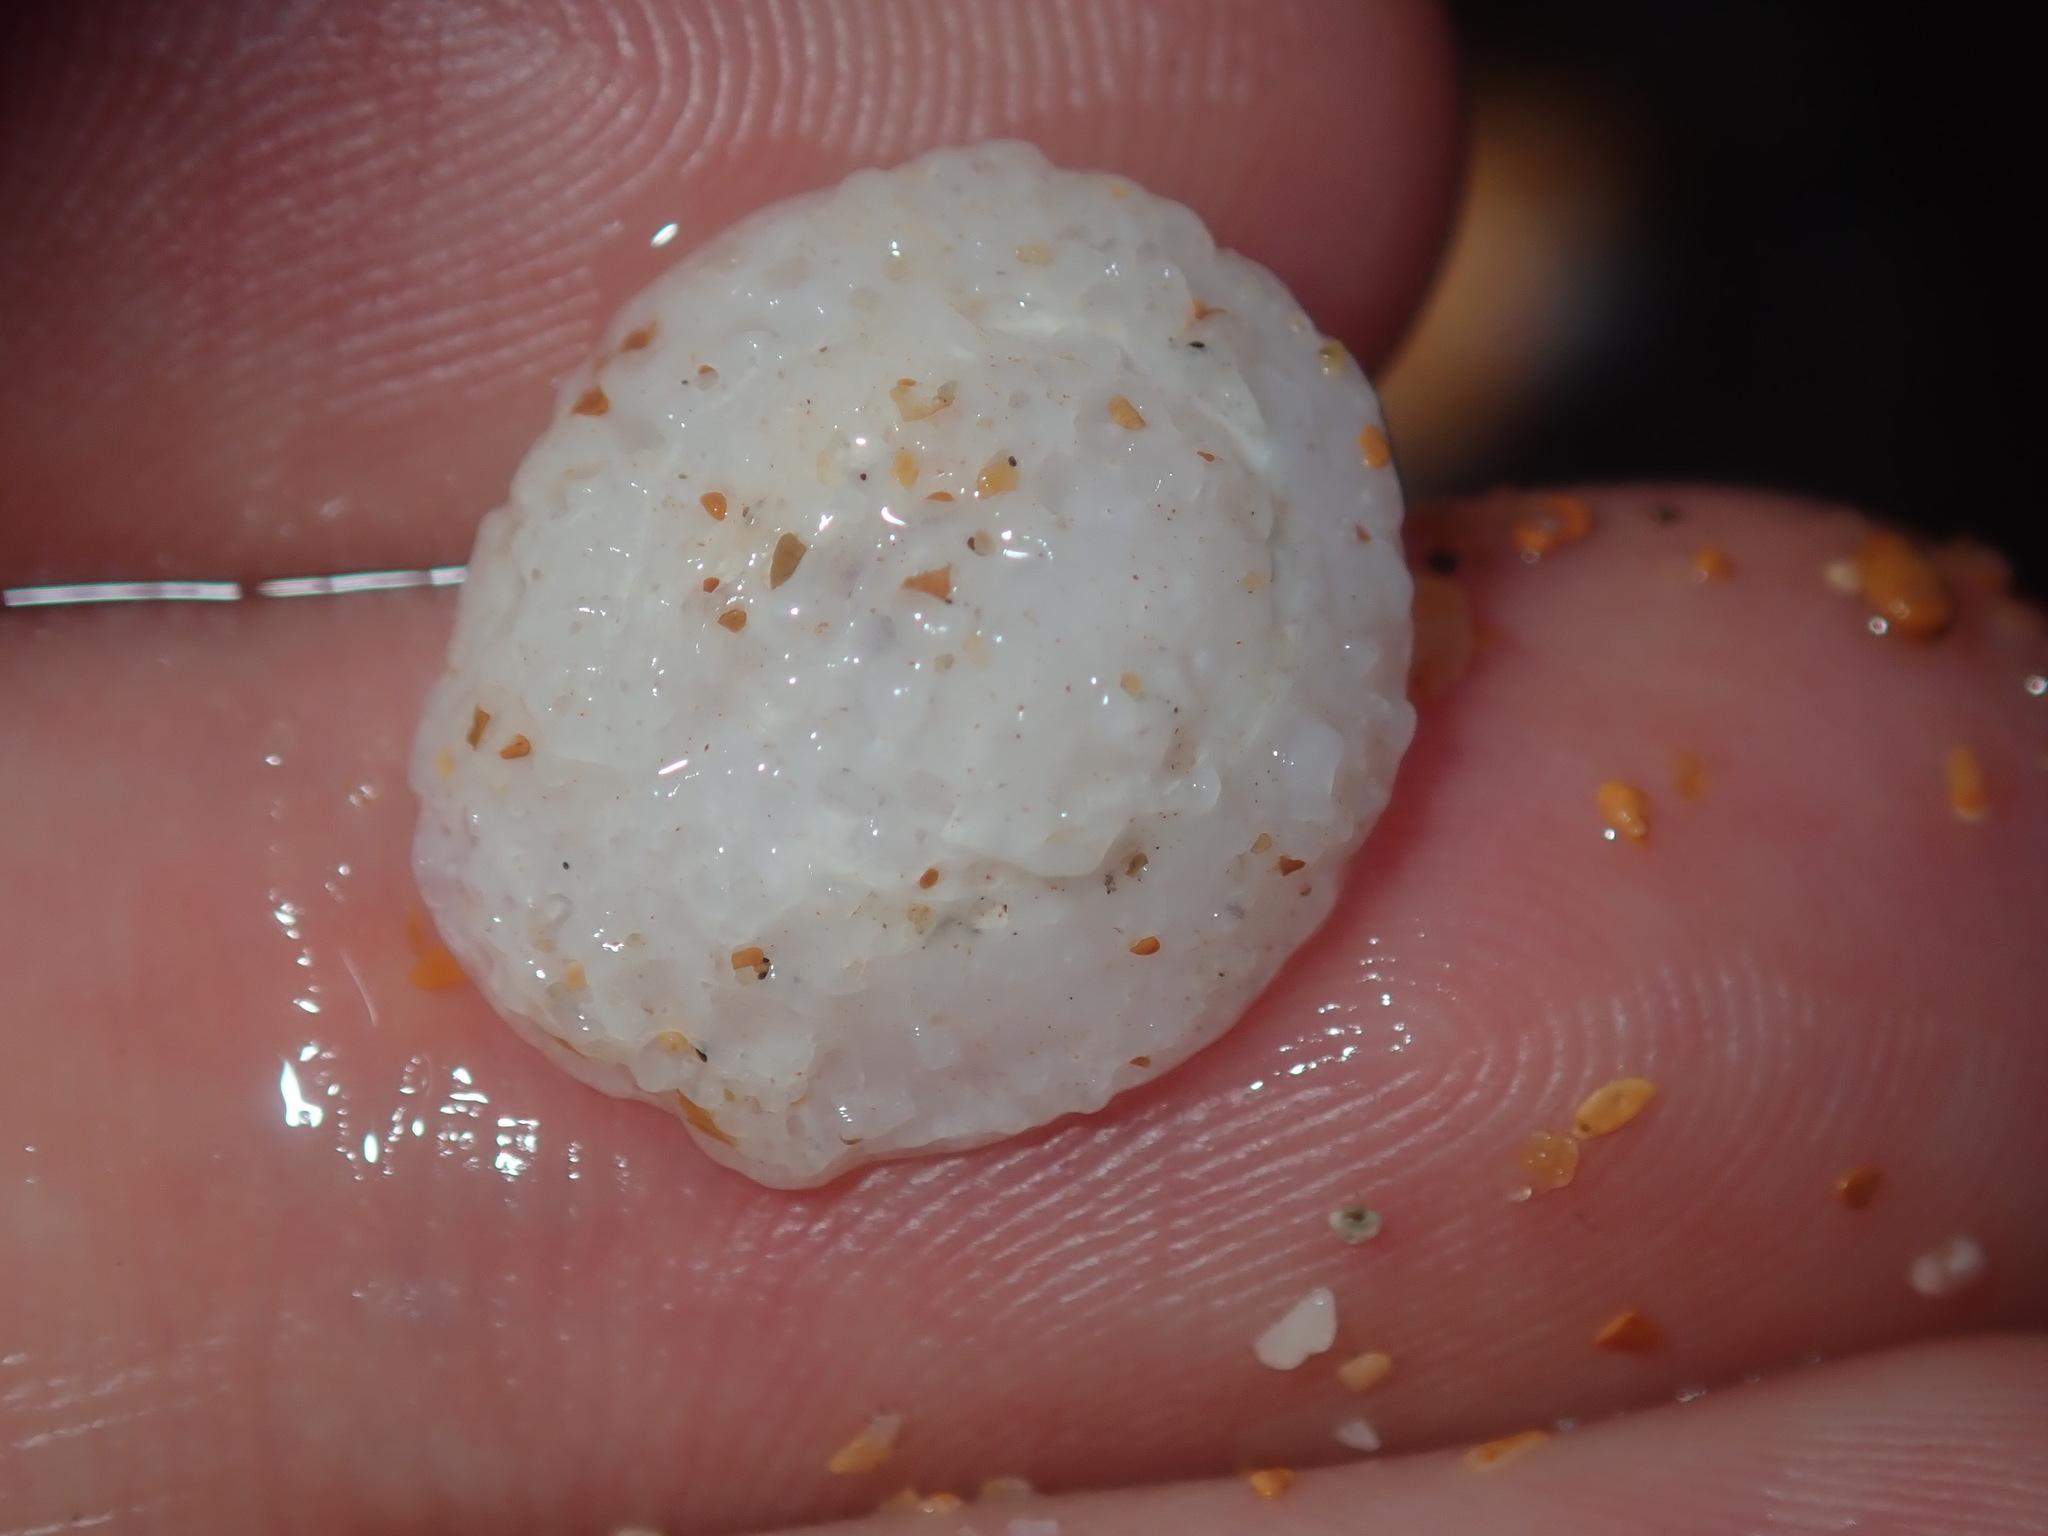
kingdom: Animalia
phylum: Mollusca
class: Gastropoda
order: Ellobiida
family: Trimusculidae
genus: Trimusculus
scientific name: Trimusculus conicus
